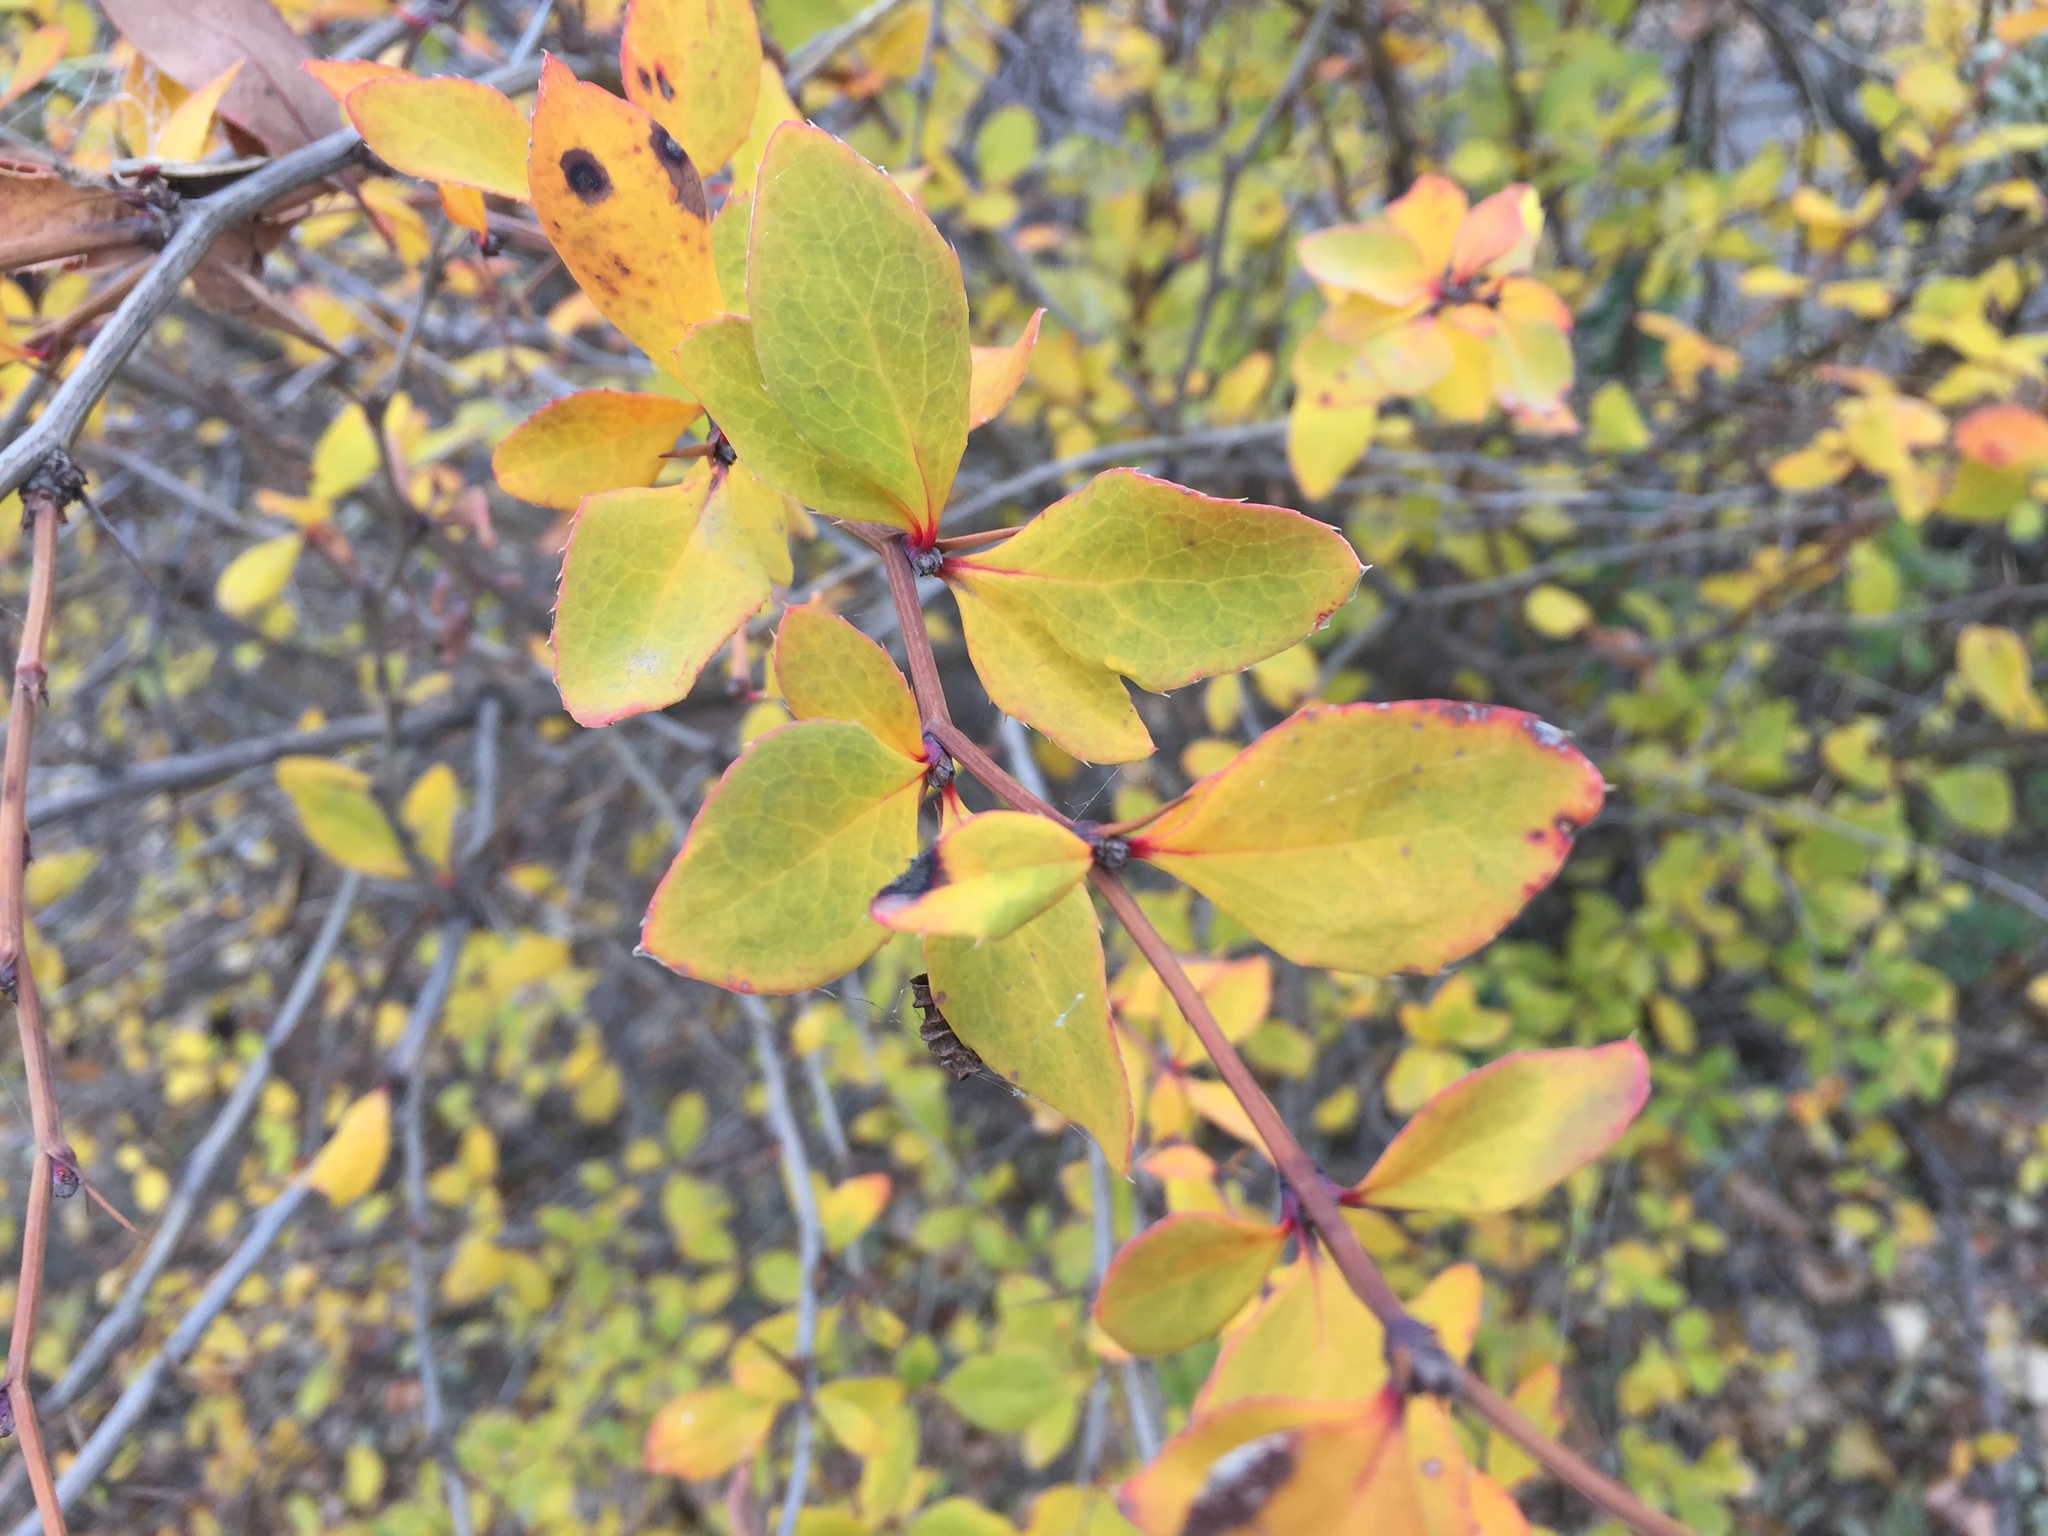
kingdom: Plantae
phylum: Tracheophyta
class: Magnoliopsida
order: Ranunculales
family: Berberidaceae
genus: Berberis
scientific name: Berberis vulgaris
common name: Barberry
